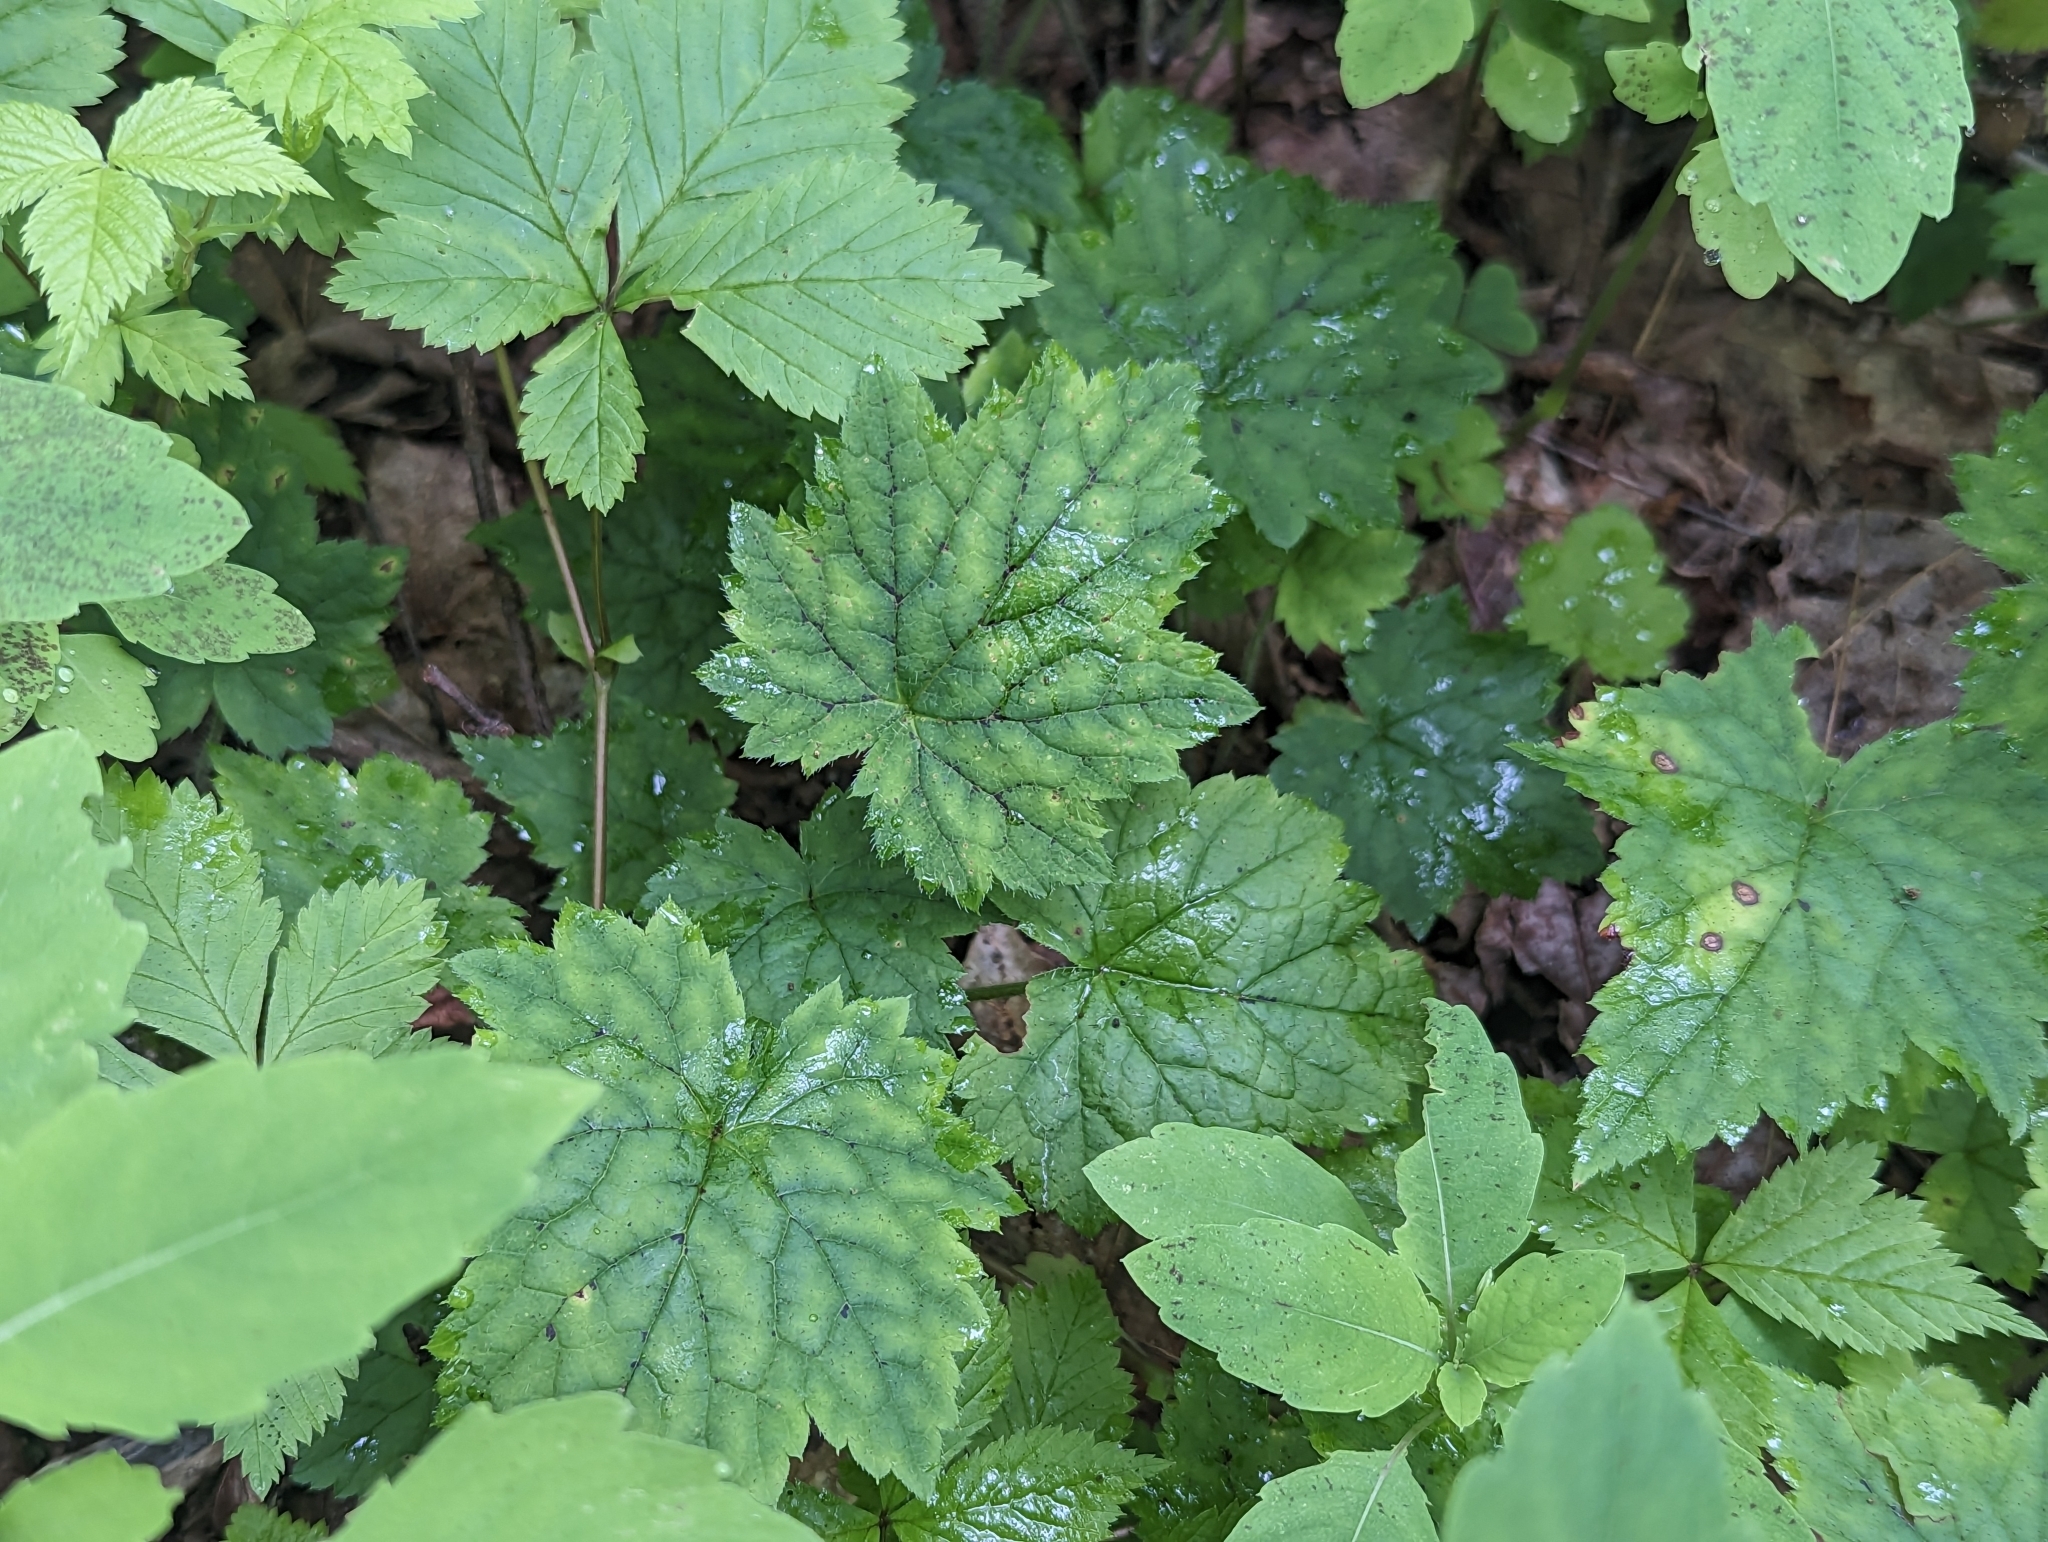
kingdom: Plantae
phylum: Tracheophyta
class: Magnoliopsida
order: Saxifragales
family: Saxifragaceae
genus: Tiarella
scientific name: Tiarella stolonifera
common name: Stoloniferous foamflower
